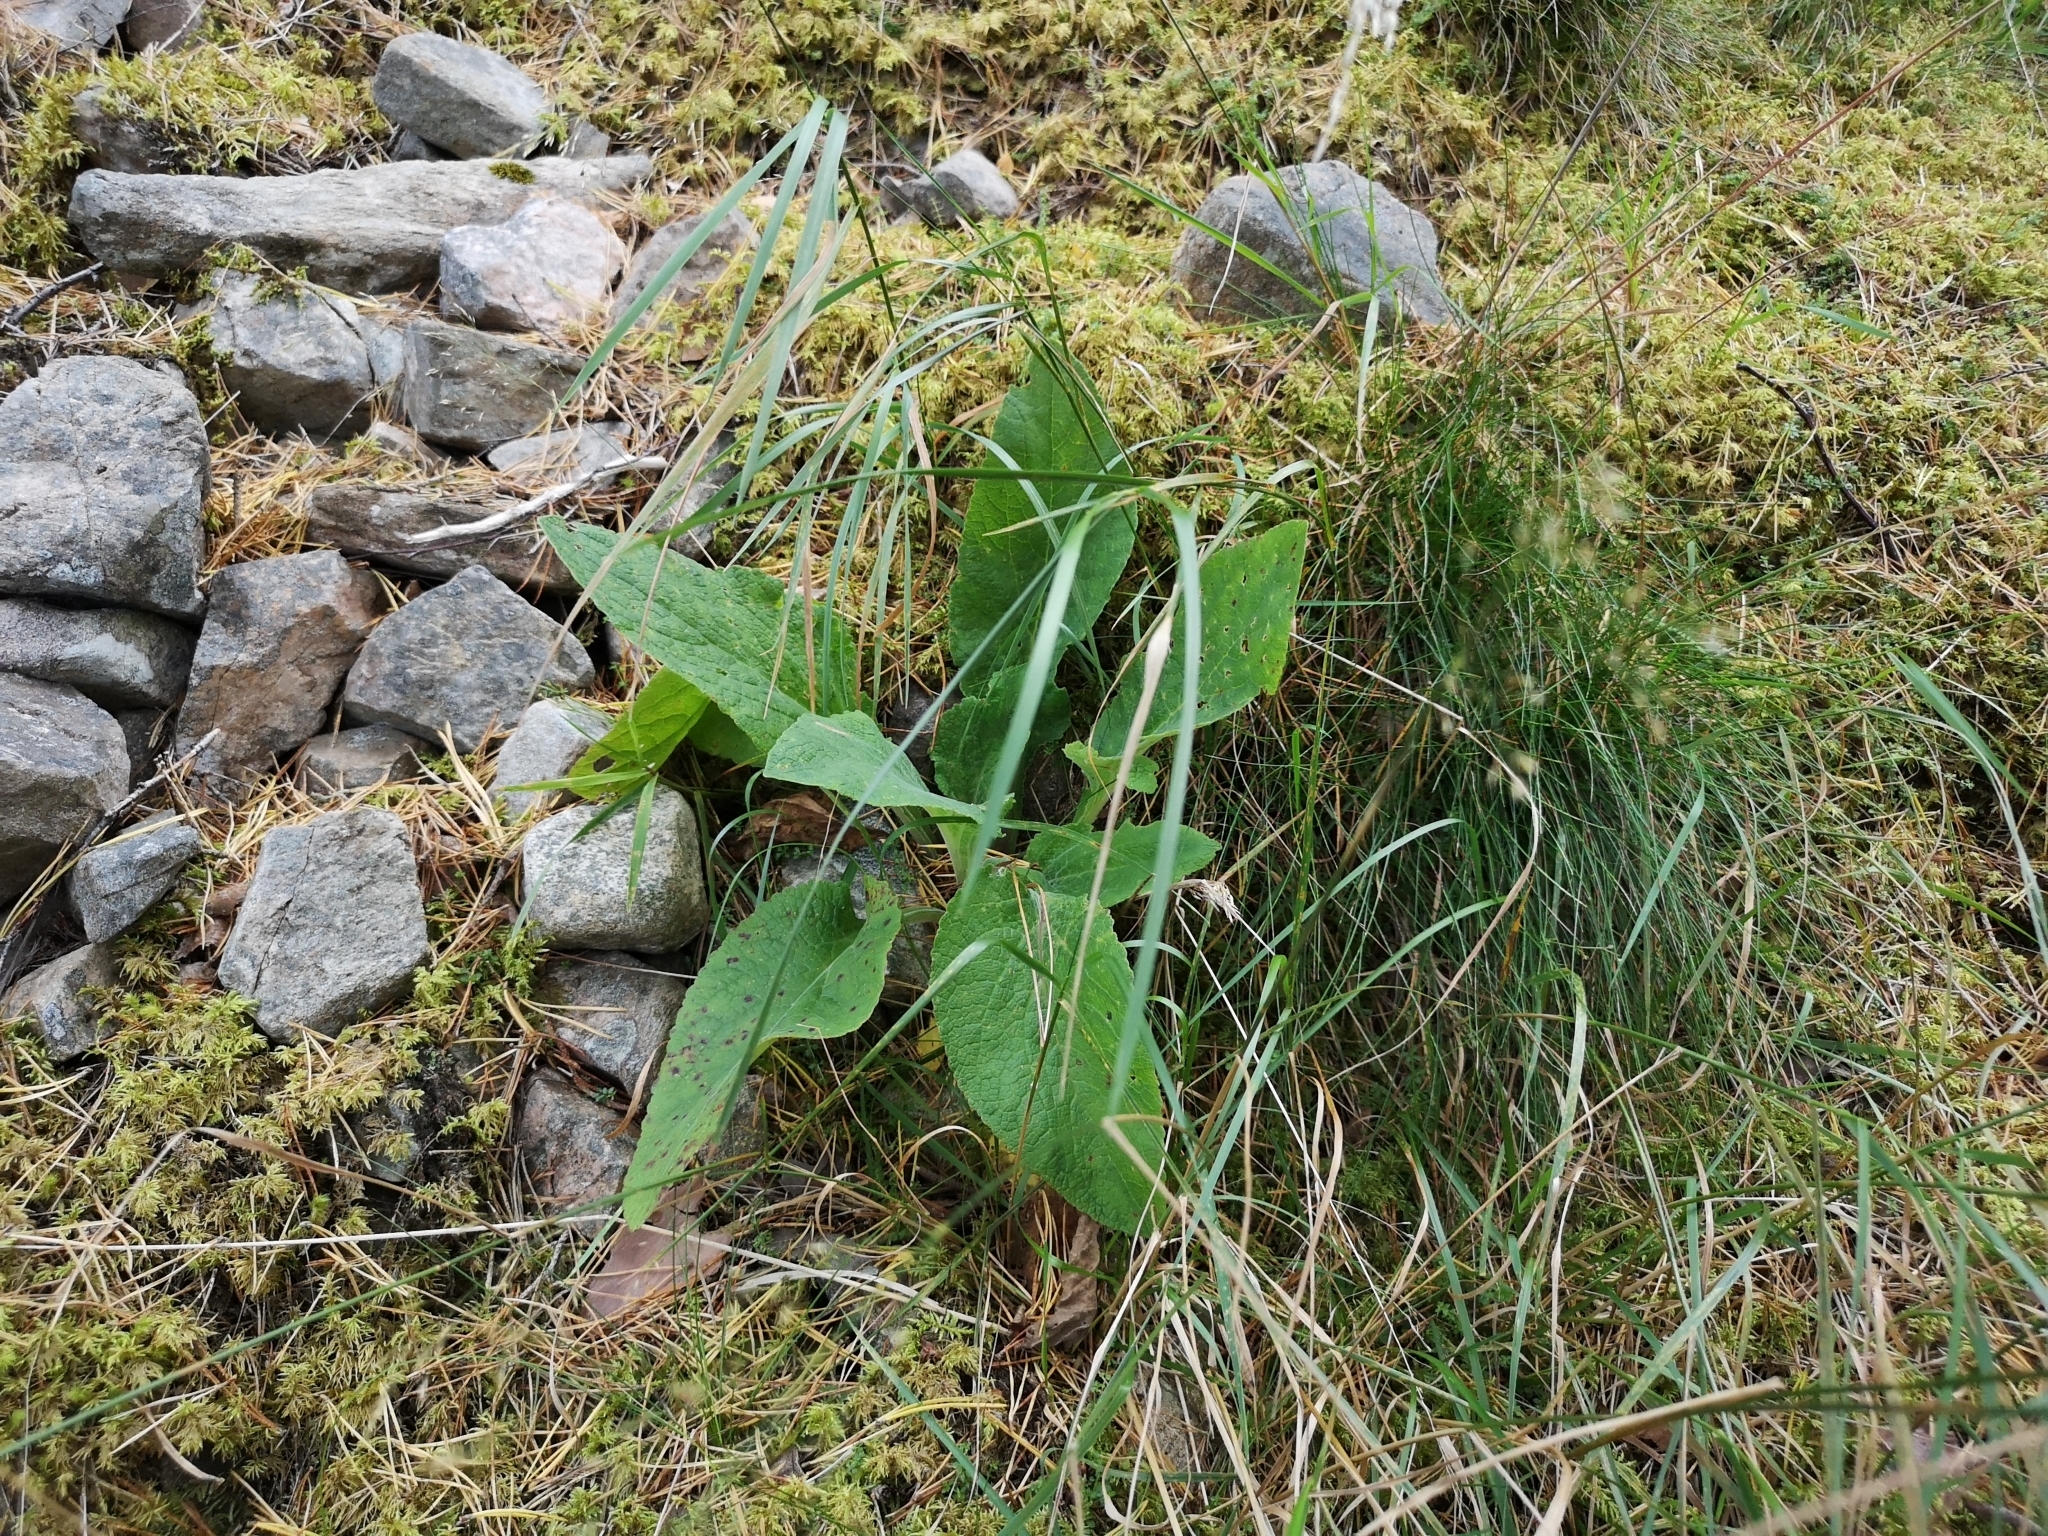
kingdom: Plantae
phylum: Tracheophyta
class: Magnoliopsida
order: Lamiales
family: Plantaginaceae
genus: Digitalis
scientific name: Digitalis purpurea
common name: Foxglove
